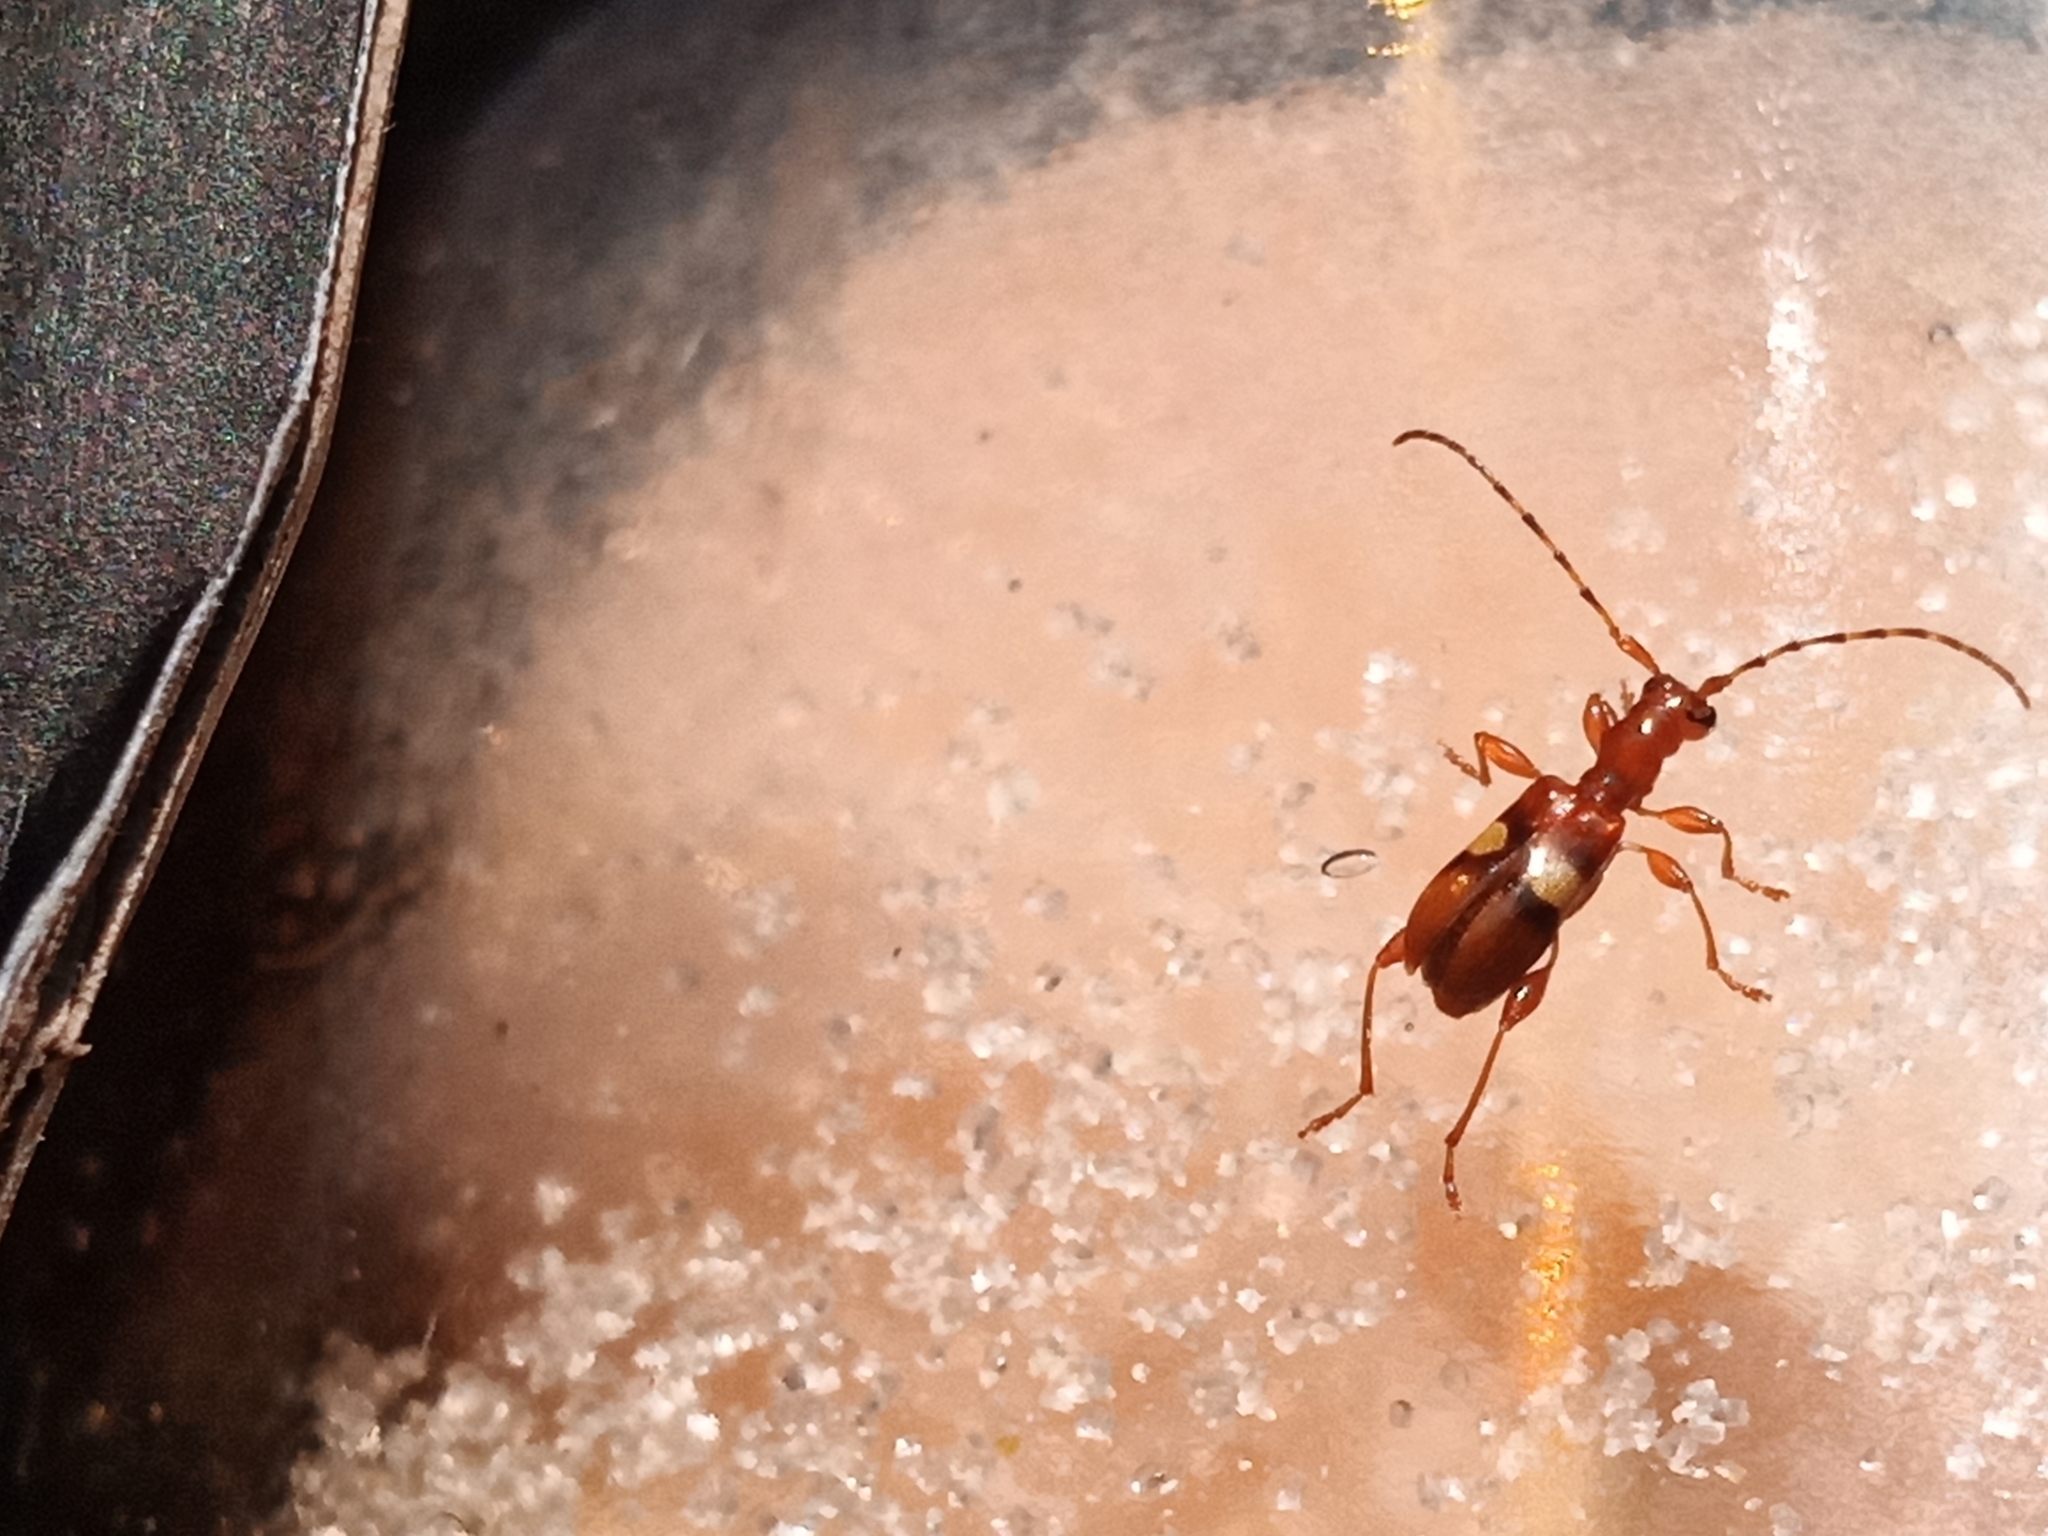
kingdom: Animalia
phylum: Arthropoda
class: Insecta
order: Coleoptera
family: Cerambycidae
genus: Zorion
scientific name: Zorion australe
